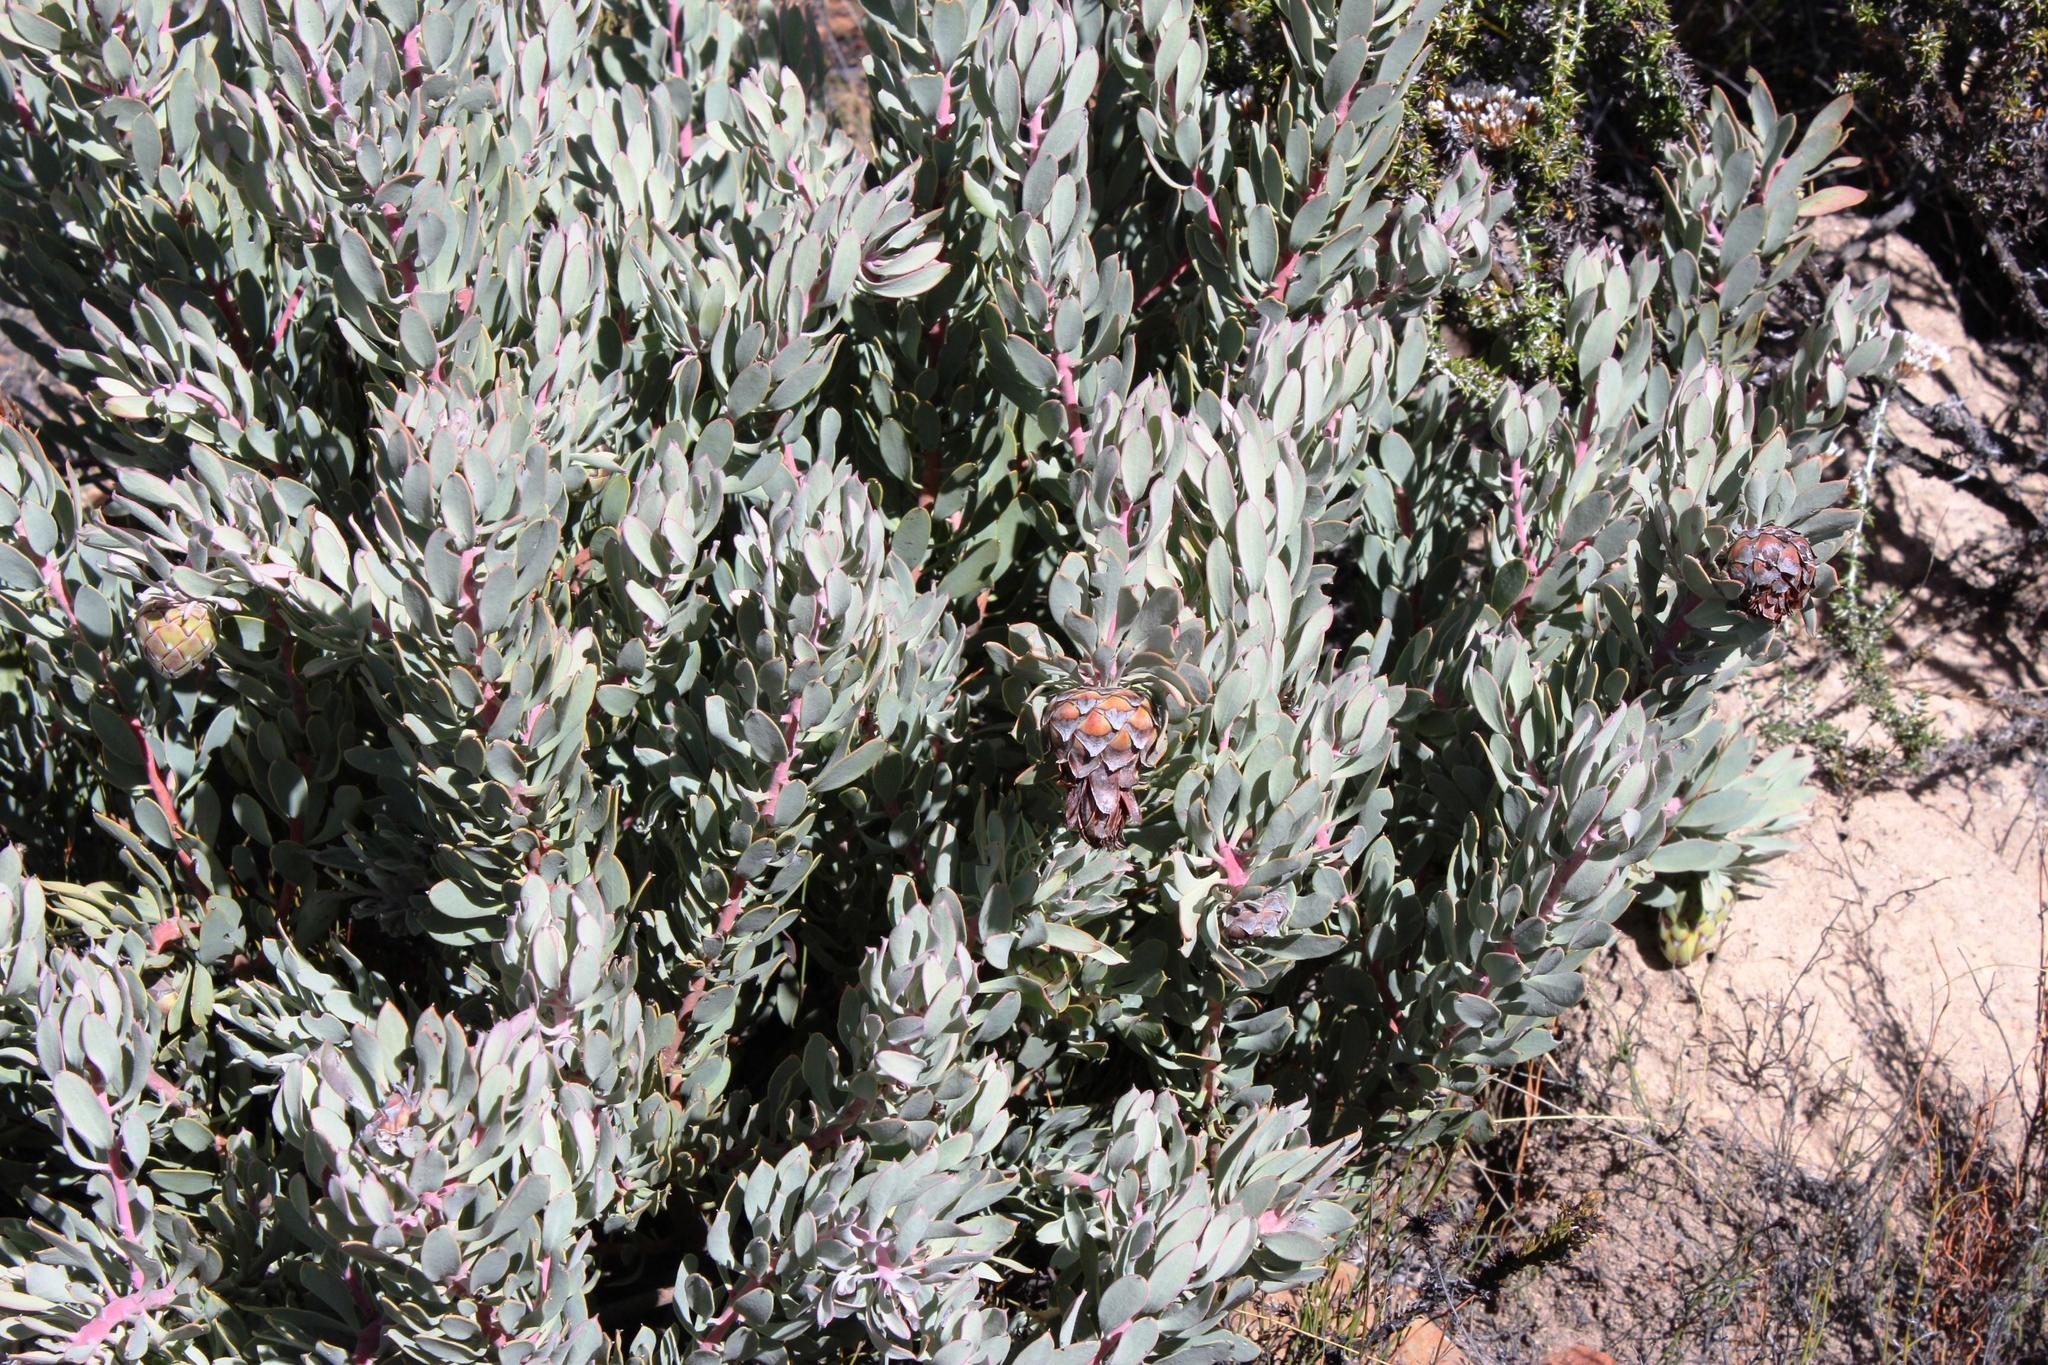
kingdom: Plantae
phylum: Tracheophyta
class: Magnoliopsida
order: Proteales
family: Proteaceae
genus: Protea
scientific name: Protea pendula
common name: Nodding sugarbush
